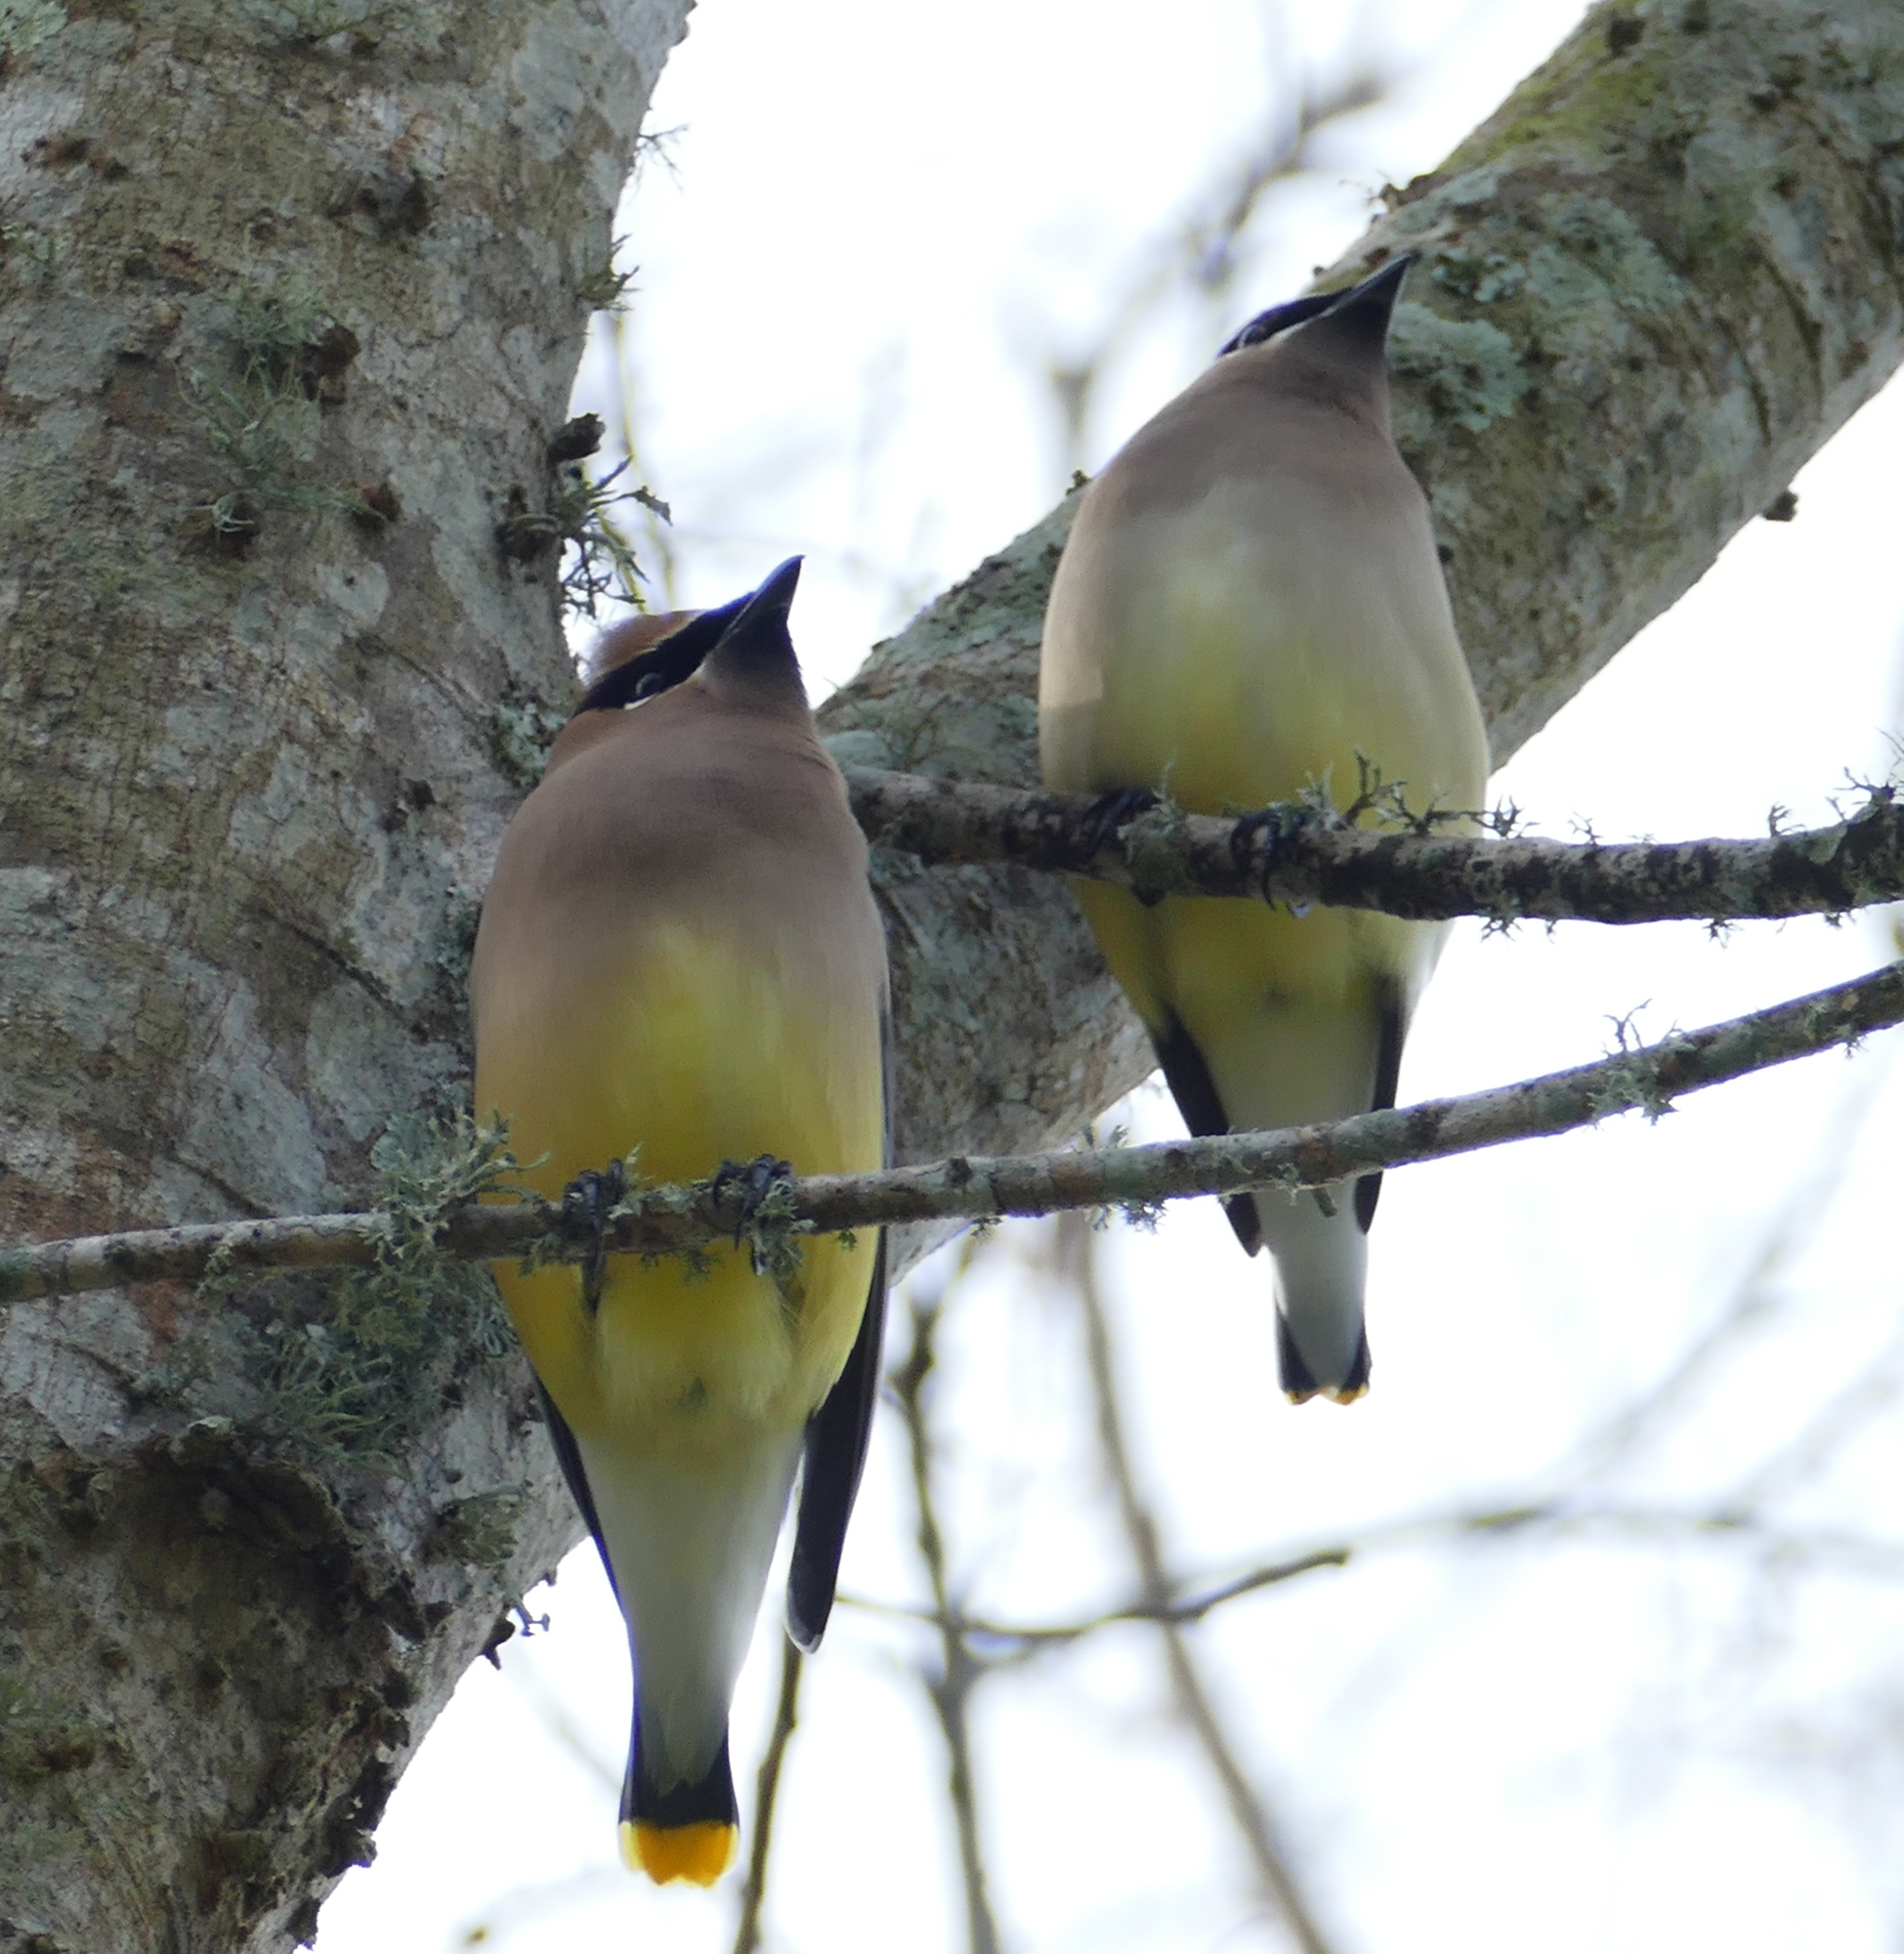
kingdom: Animalia
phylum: Chordata
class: Aves
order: Passeriformes
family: Bombycillidae
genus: Bombycilla
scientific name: Bombycilla cedrorum
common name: Cedar waxwing
